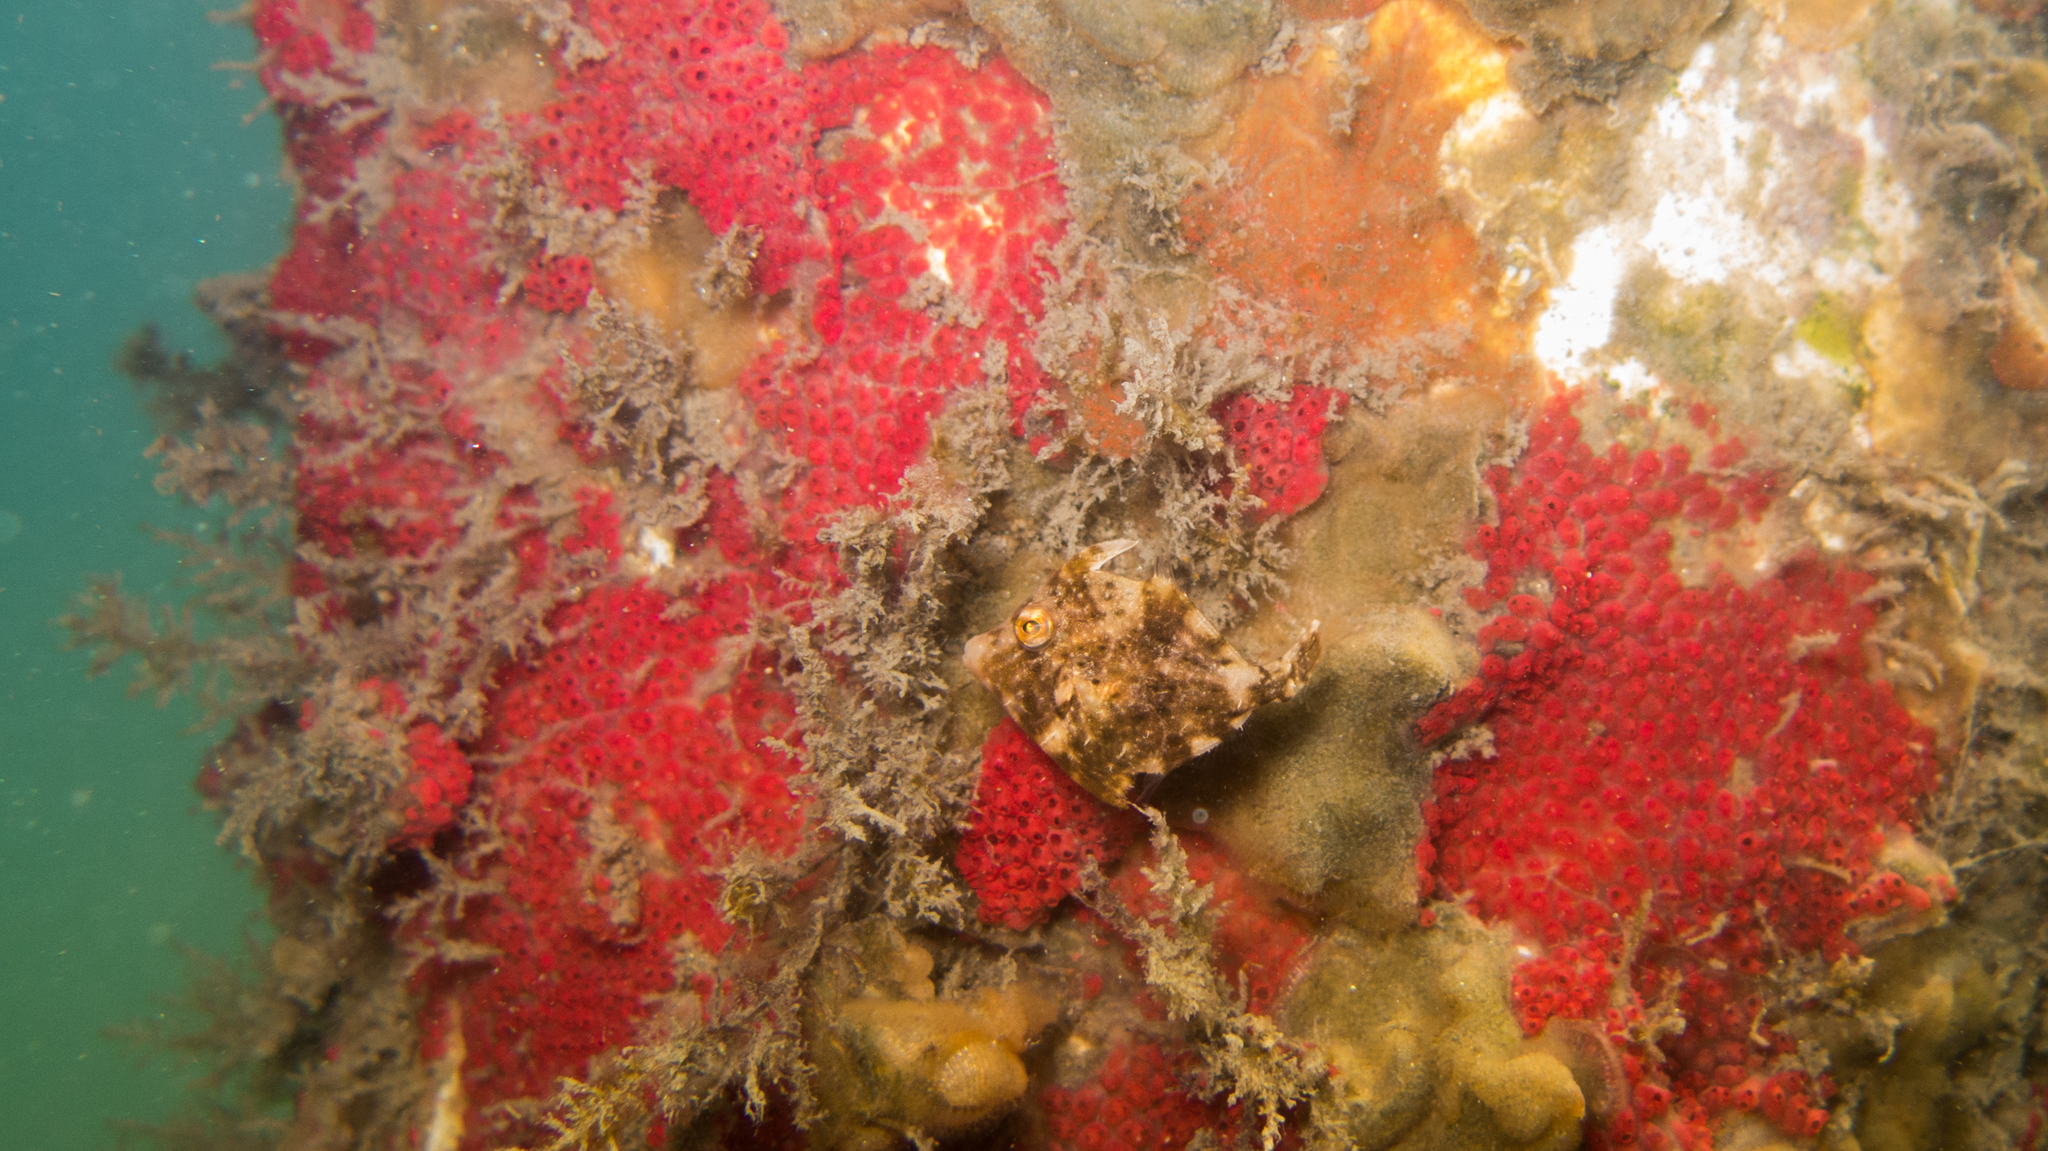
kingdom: Animalia
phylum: Chordata
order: Tetraodontiformes
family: Monacanthidae
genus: Stephanolepis
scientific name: Stephanolepis setifer
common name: Pygmy filefish
